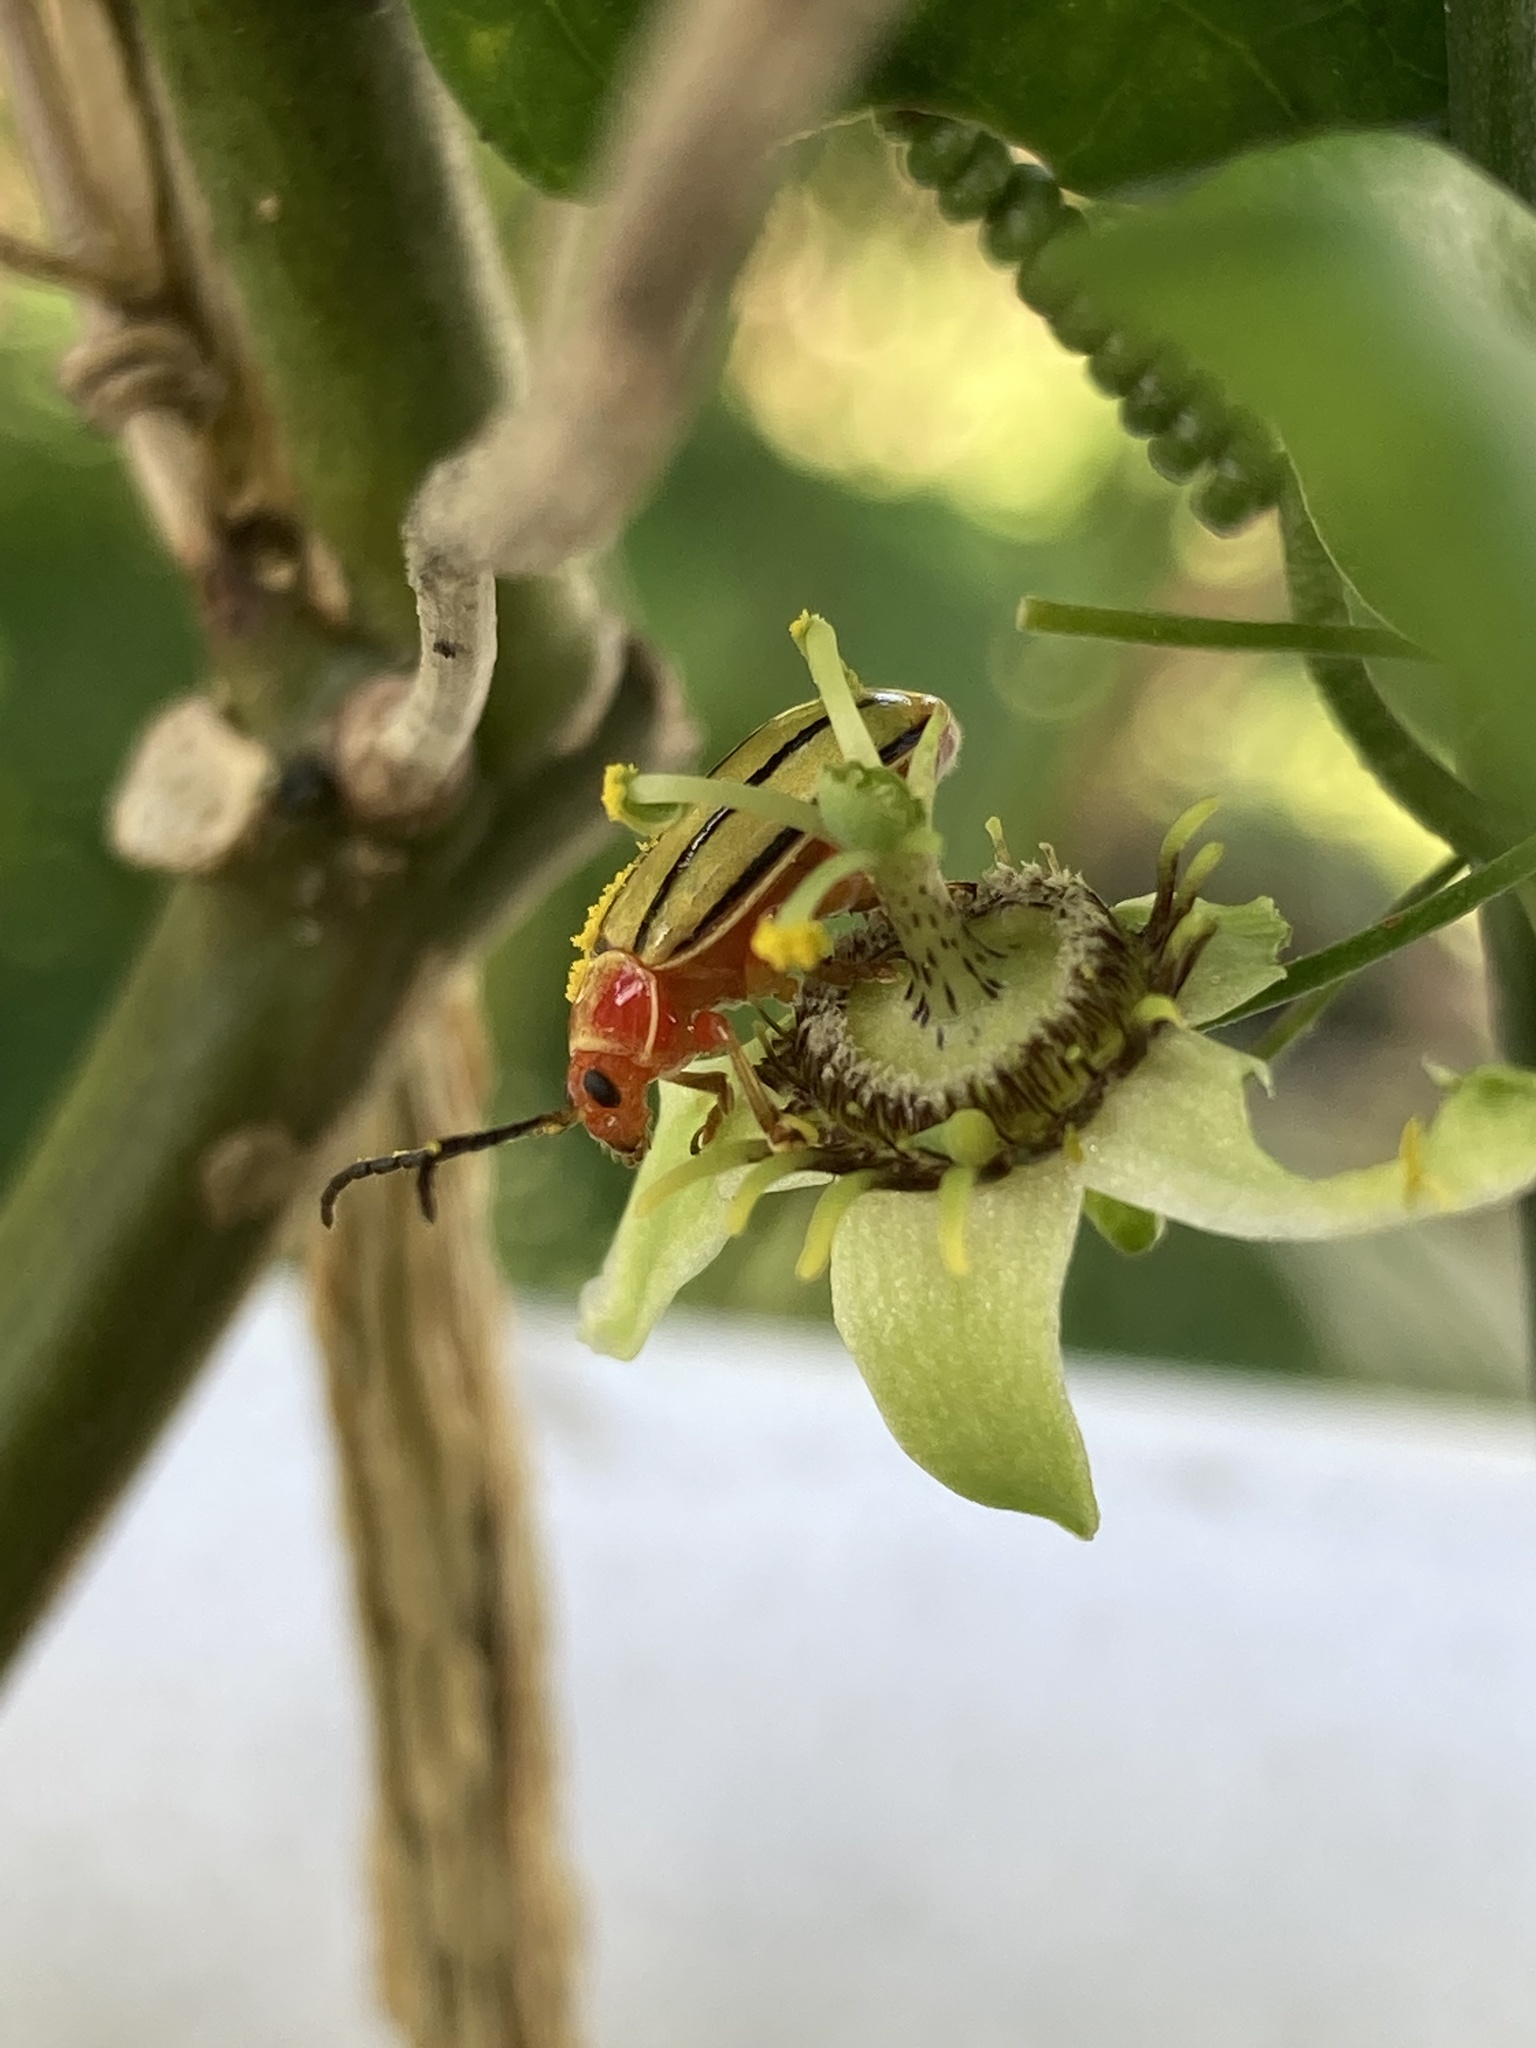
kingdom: Animalia
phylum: Arthropoda
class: Insecta
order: Coleoptera
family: Chrysomelidae
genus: Disonycha
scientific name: Disonycha
